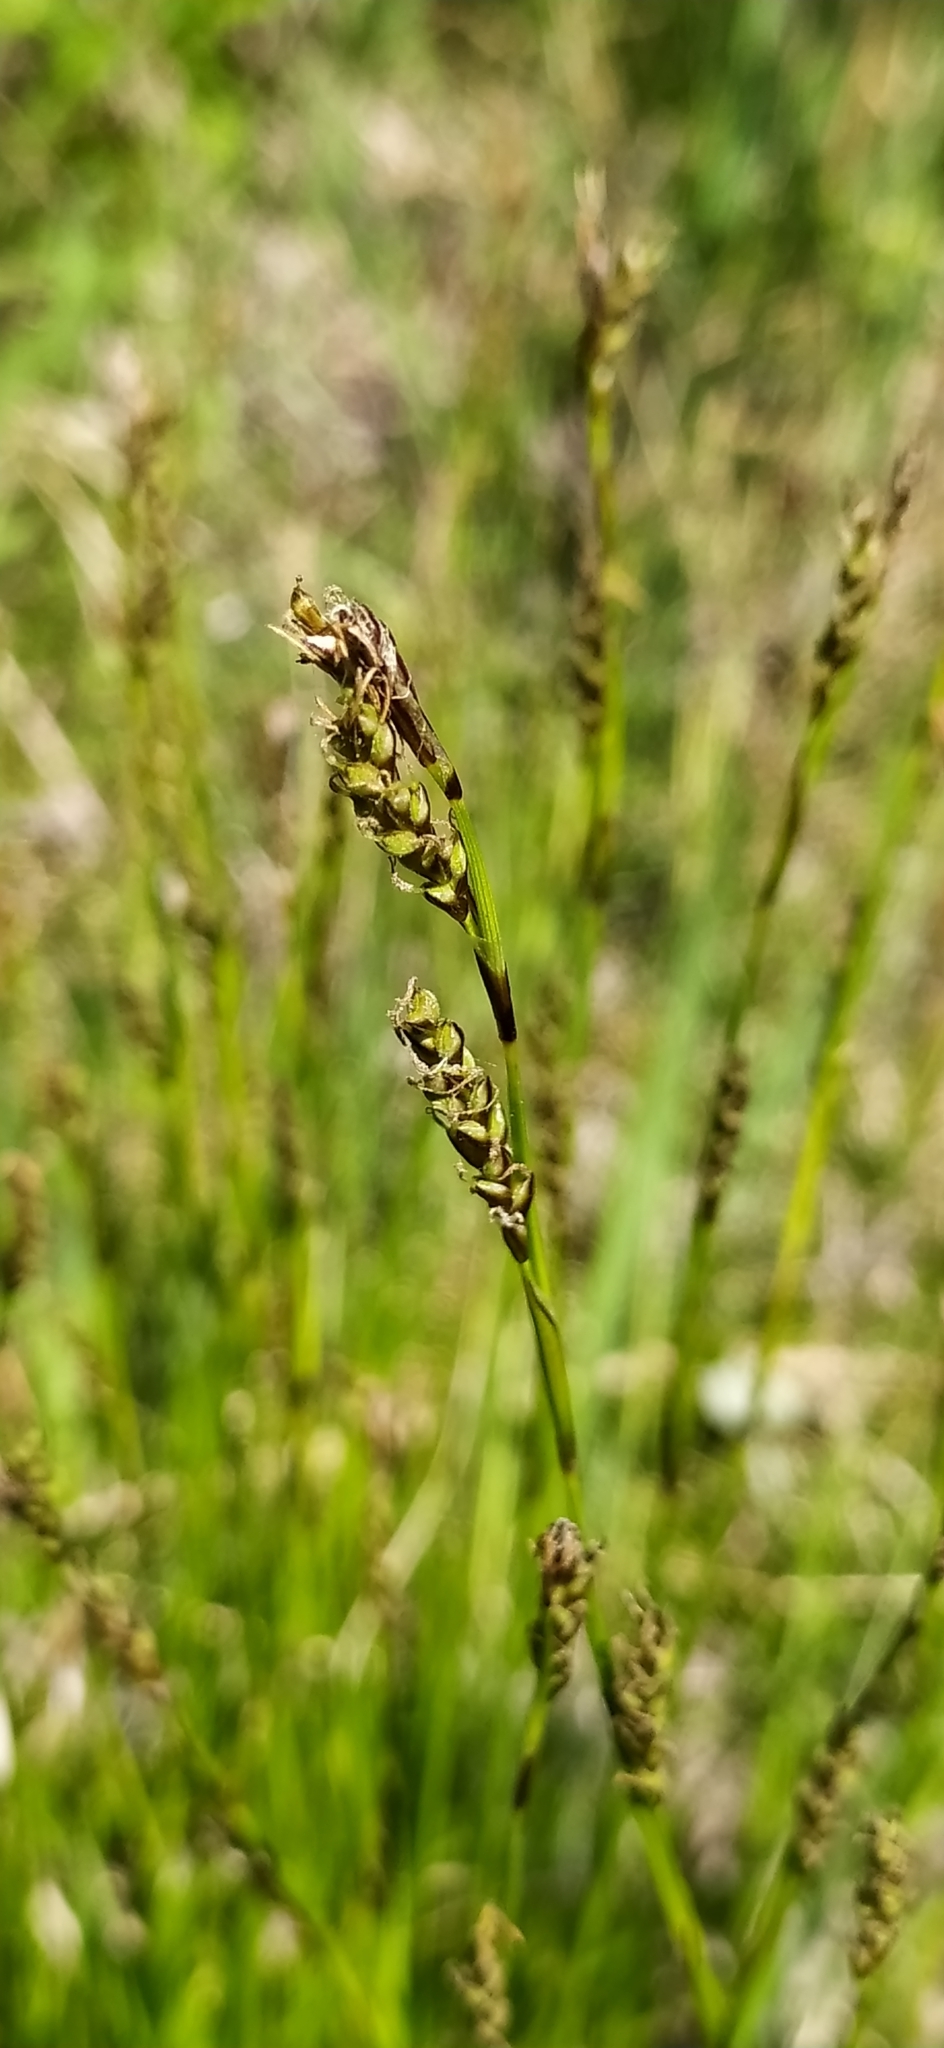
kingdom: Plantae
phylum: Tracheophyta
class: Liliopsida
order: Poales
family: Cyperaceae
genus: Carex
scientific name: Carex rhizina
